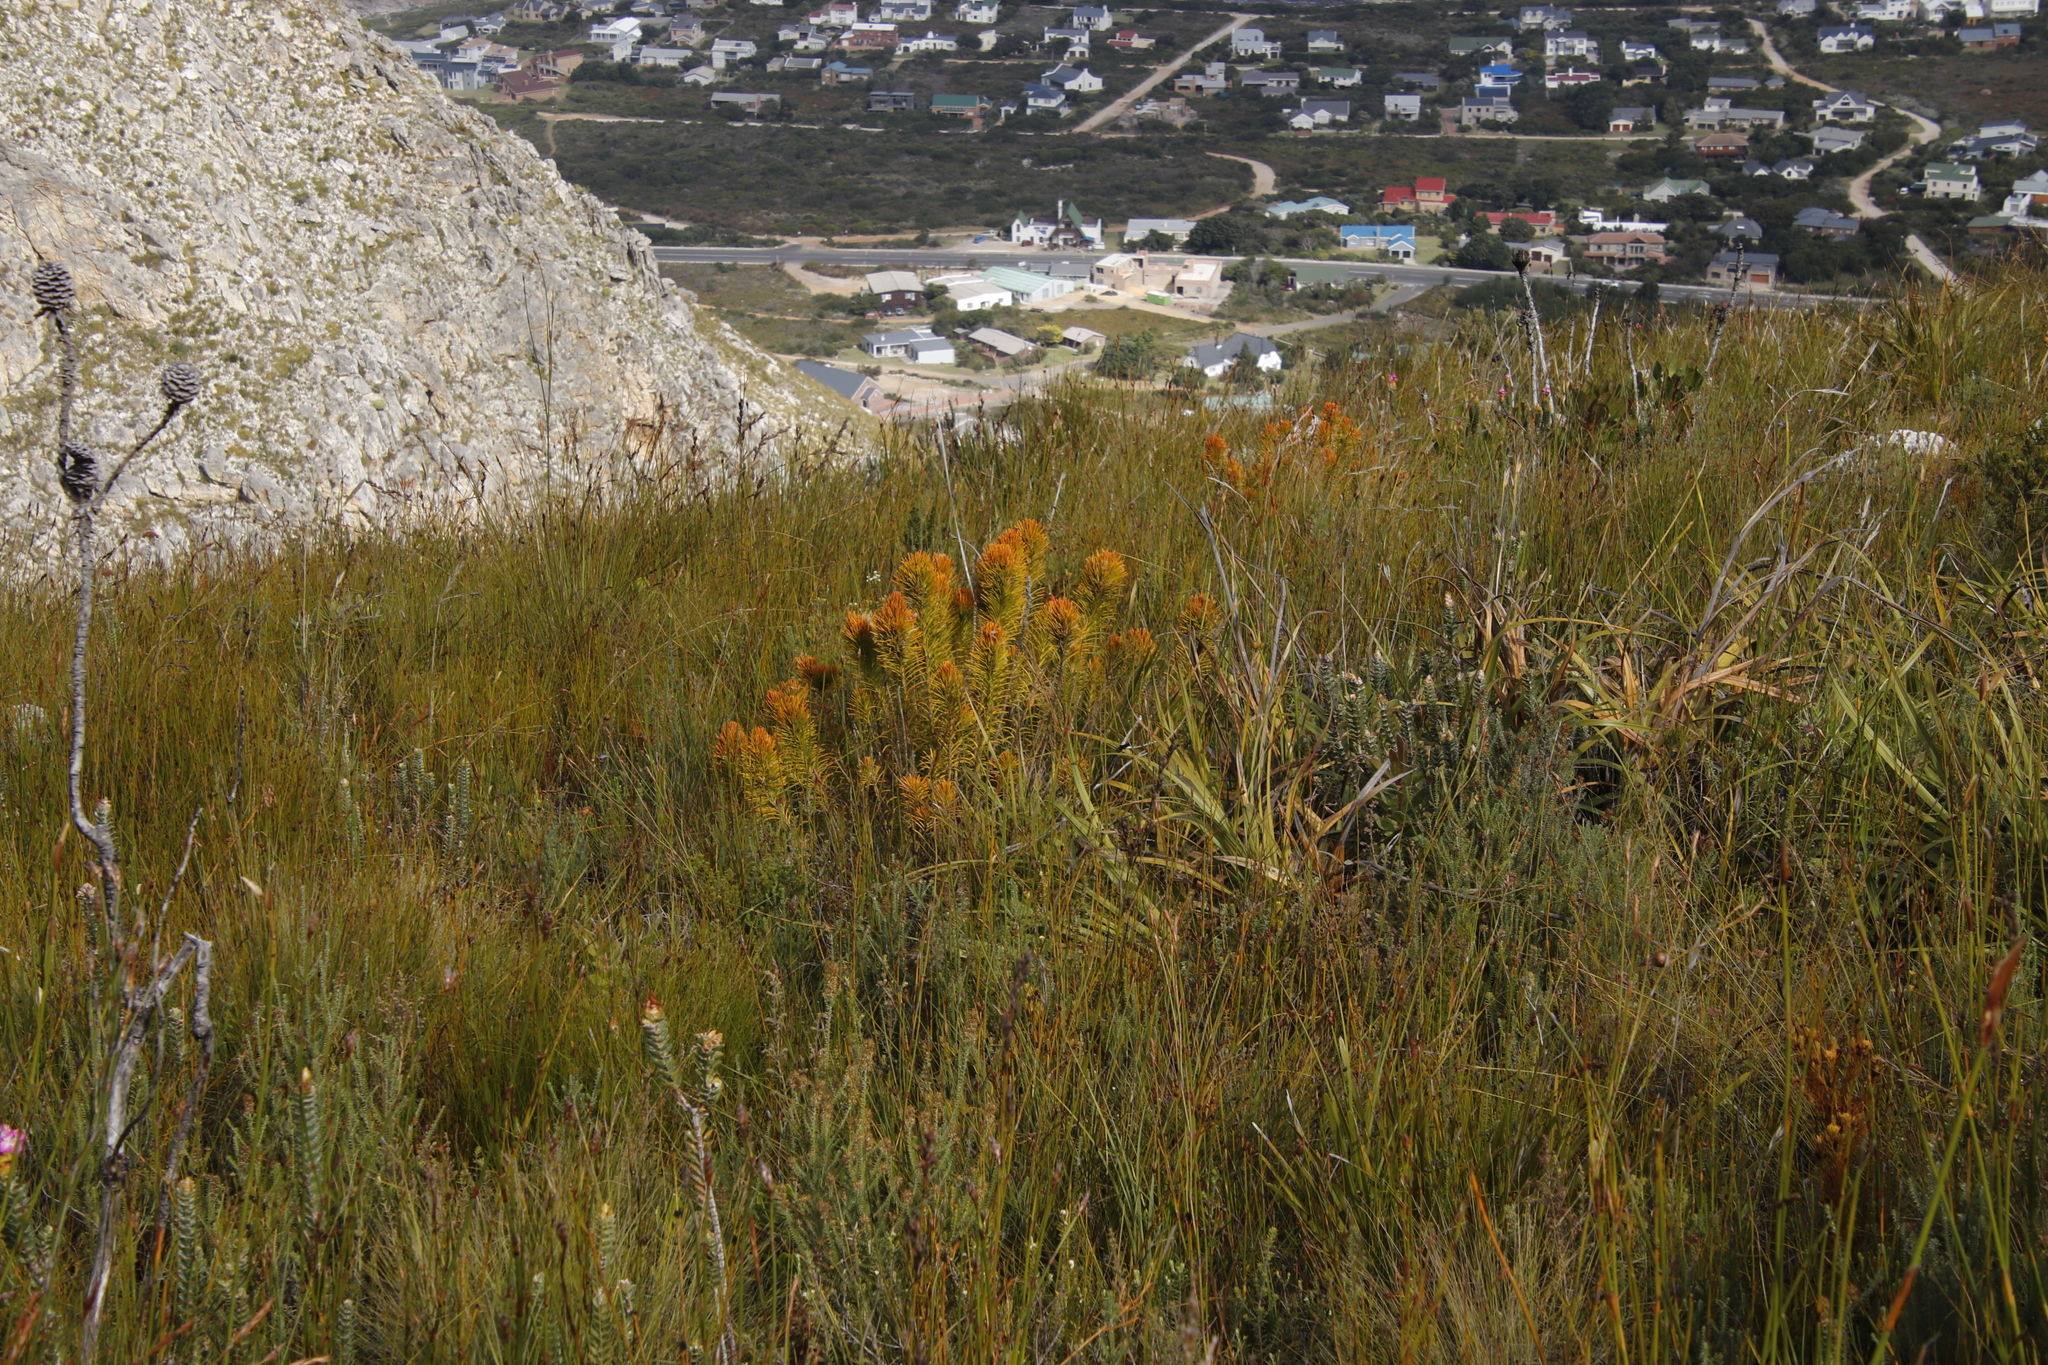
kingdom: Plantae
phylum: Tracheophyta
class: Magnoliopsida
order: Lamiales
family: Stilbaceae
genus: Retzia
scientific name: Retzia capensis
